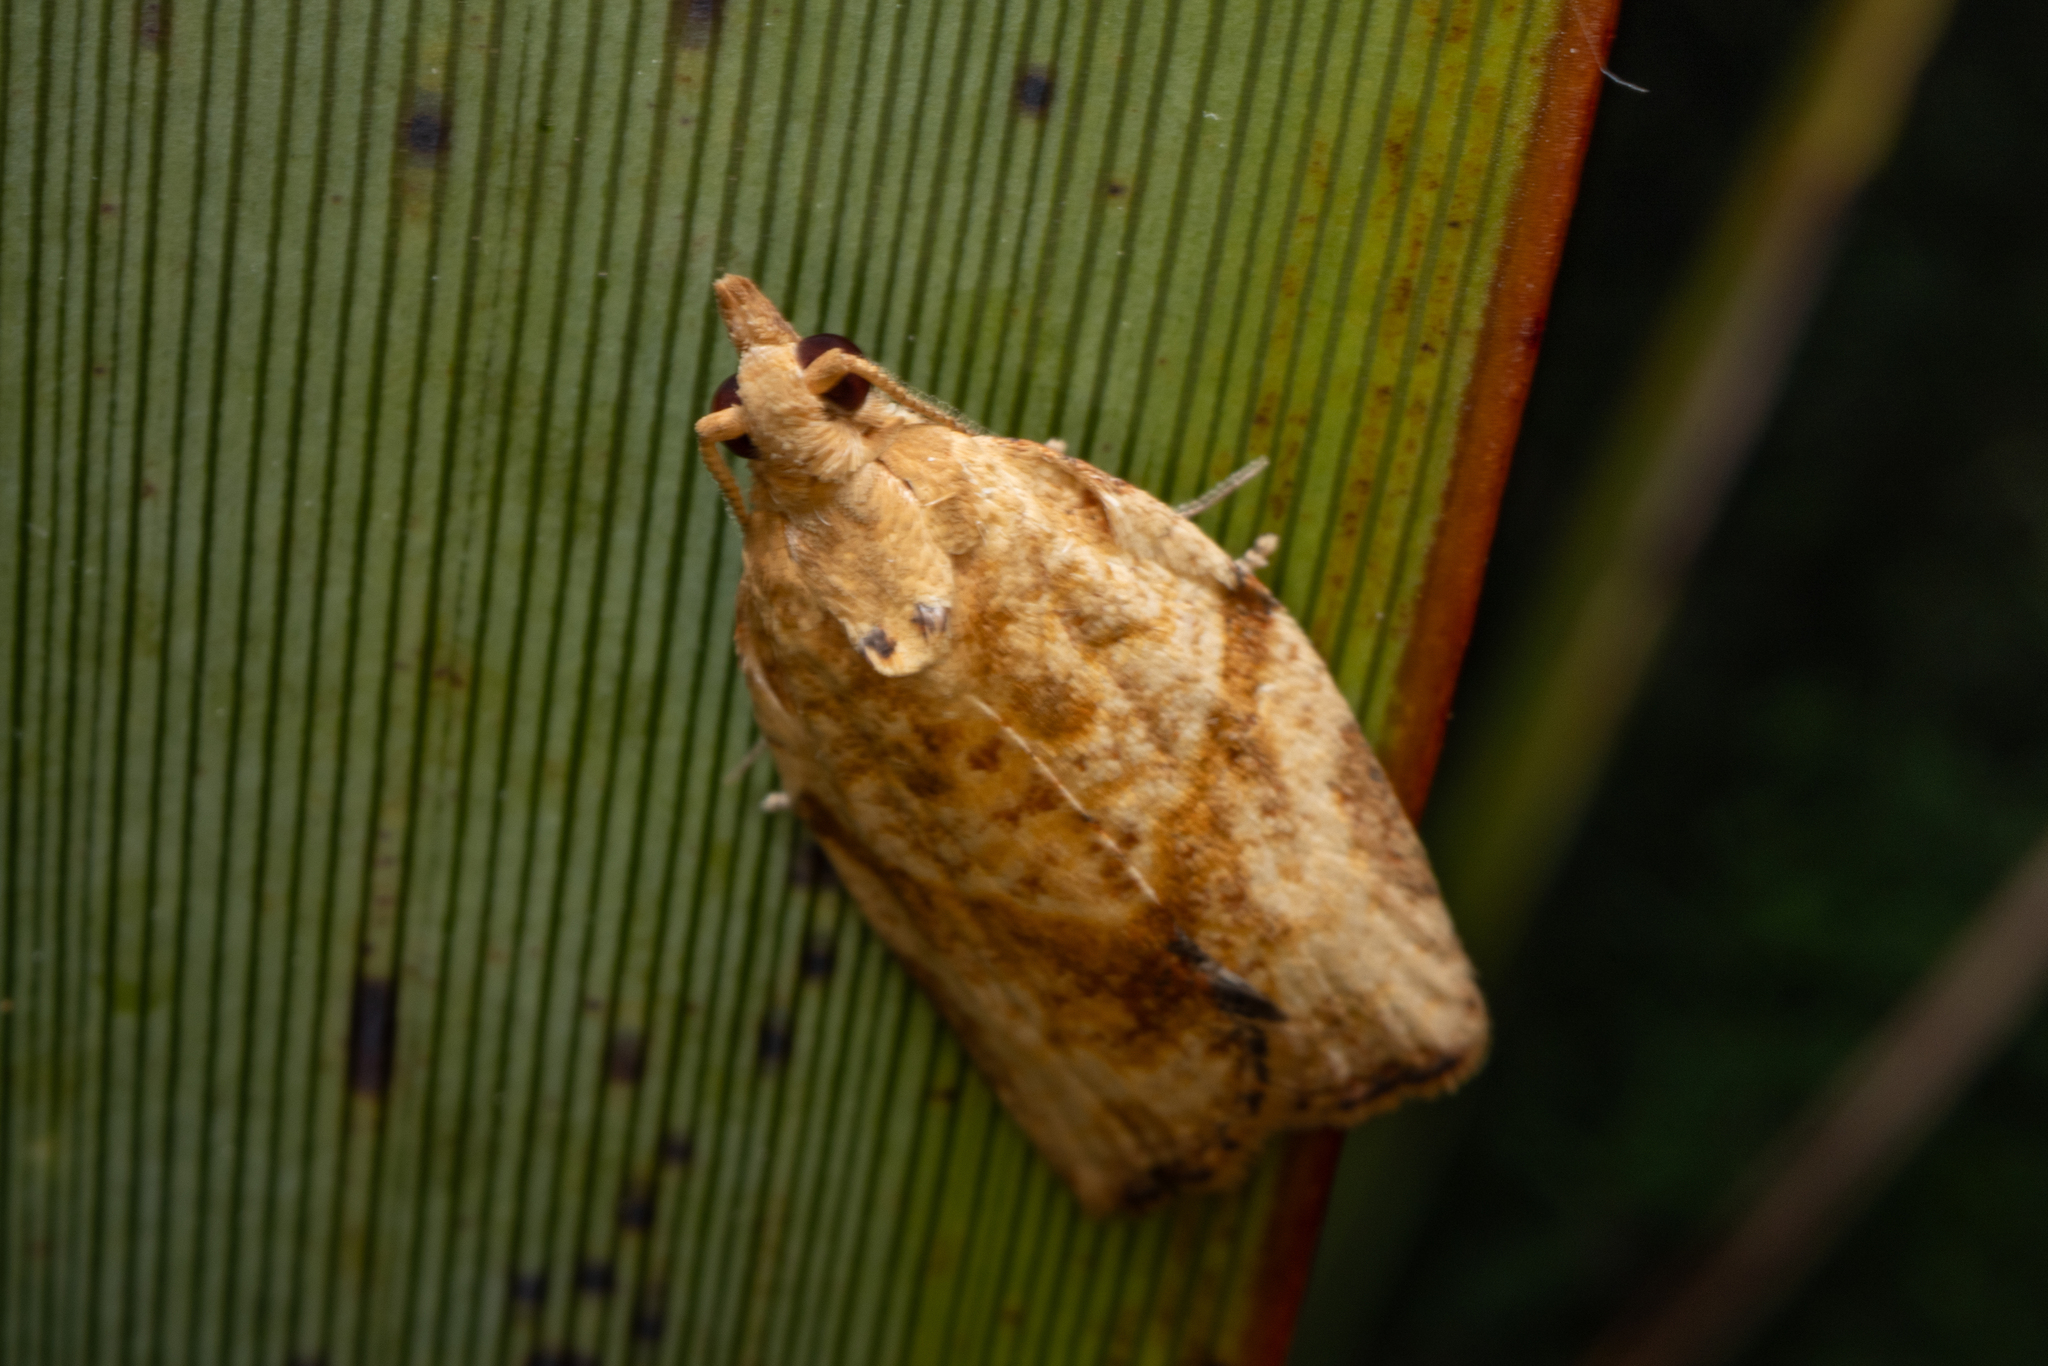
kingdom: Animalia
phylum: Arthropoda
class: Insecta
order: Lepidoptera
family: Tortricidae
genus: Epiphyas
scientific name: Epiphyas postvittana
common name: Light brown apple moth
